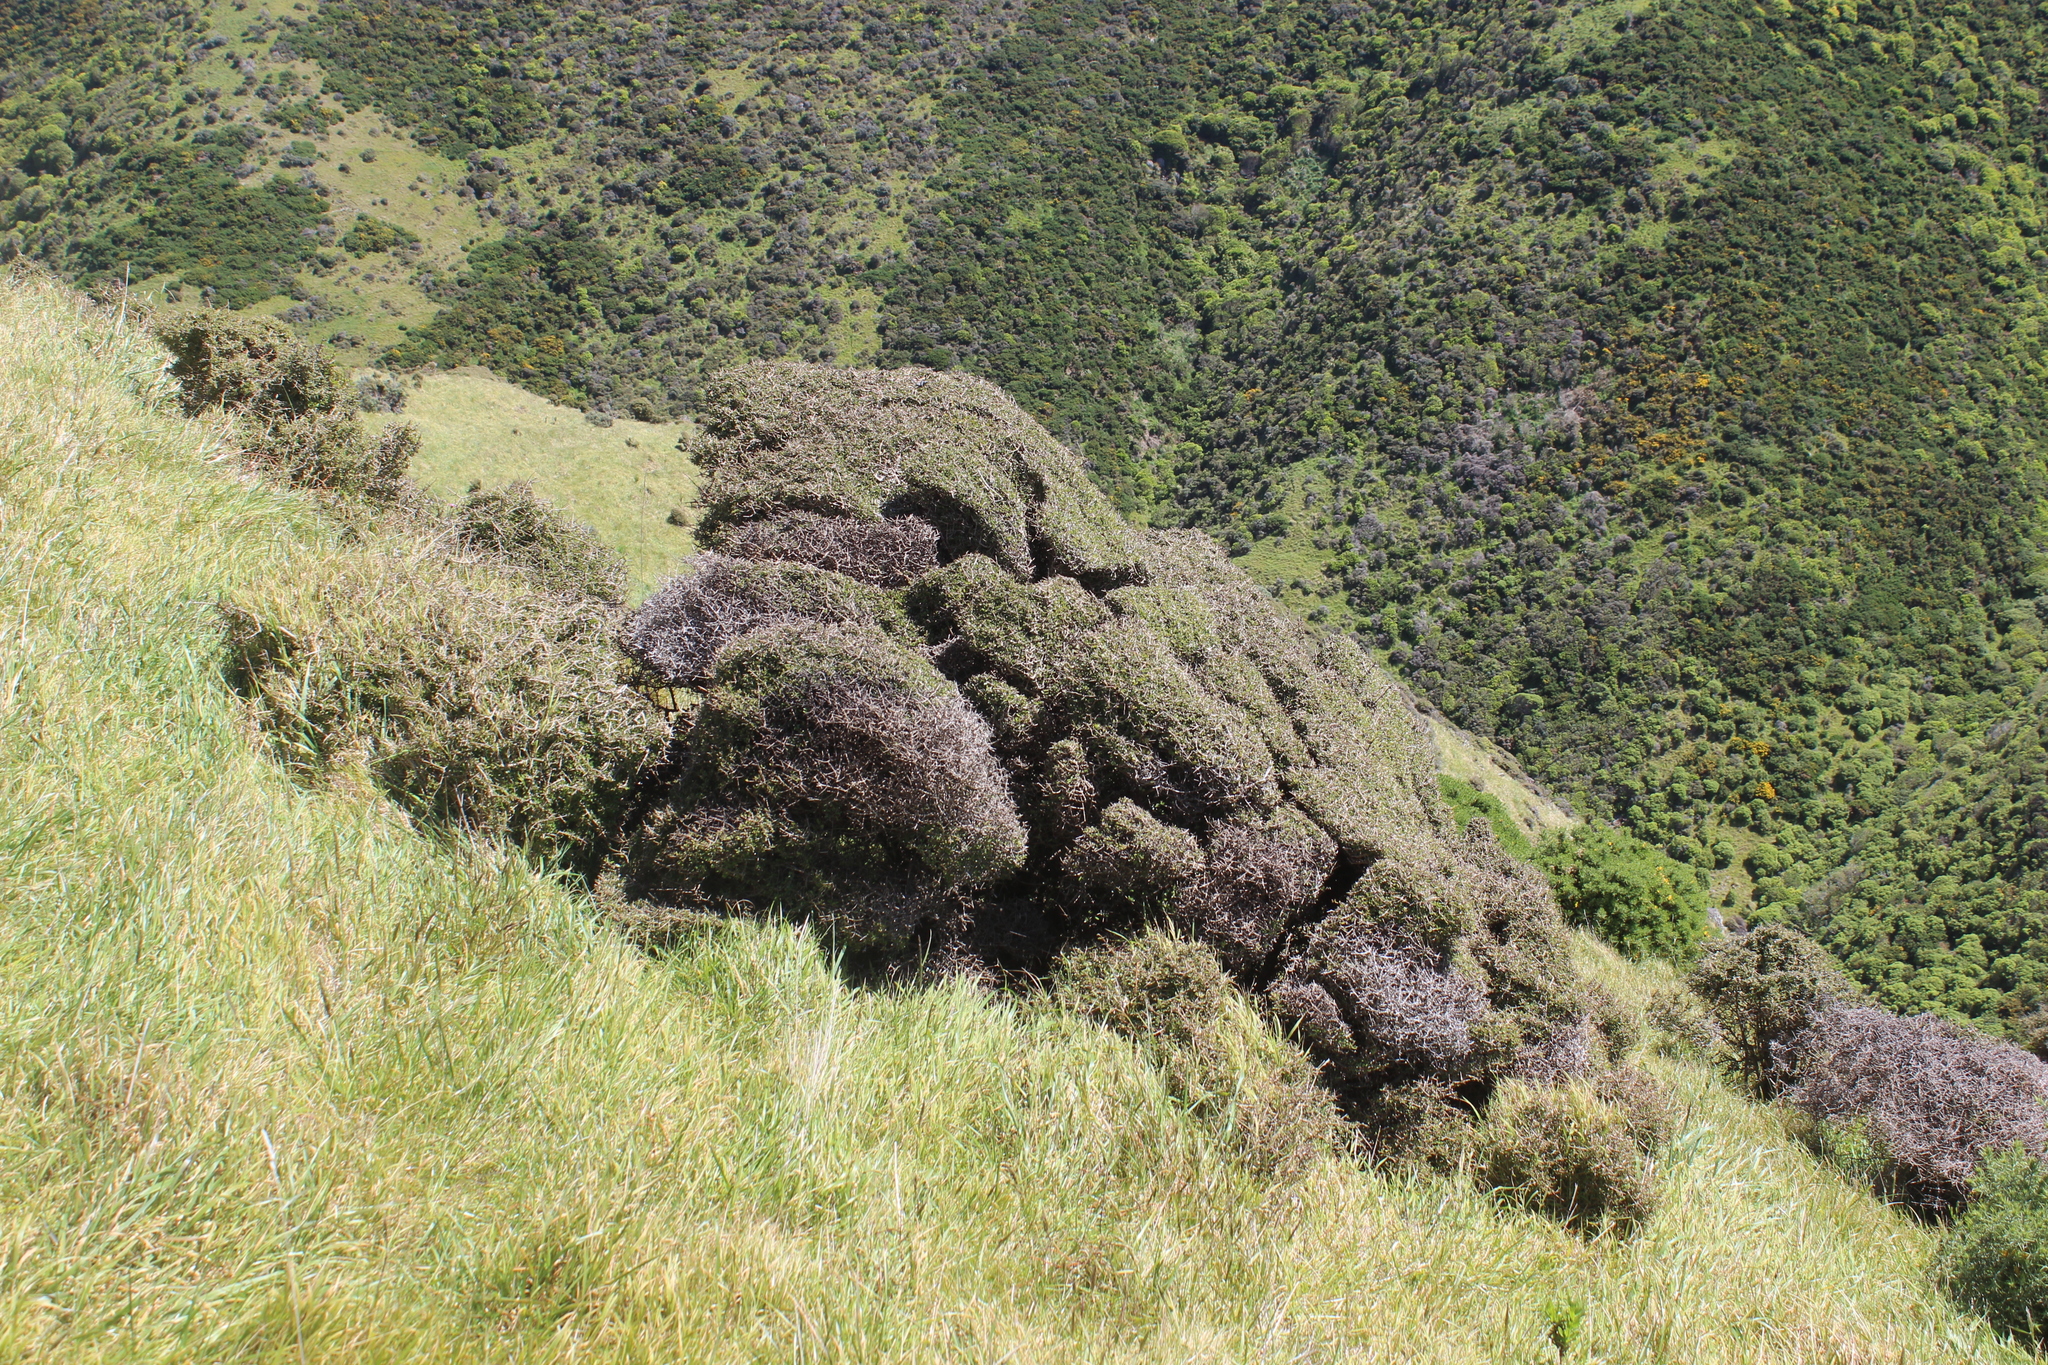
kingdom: Plantae
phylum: Tracheophyta
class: Magnoliopsida
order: Gentianales
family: Rubiaceae
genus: Coprosma
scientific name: Coprosma propinqua
